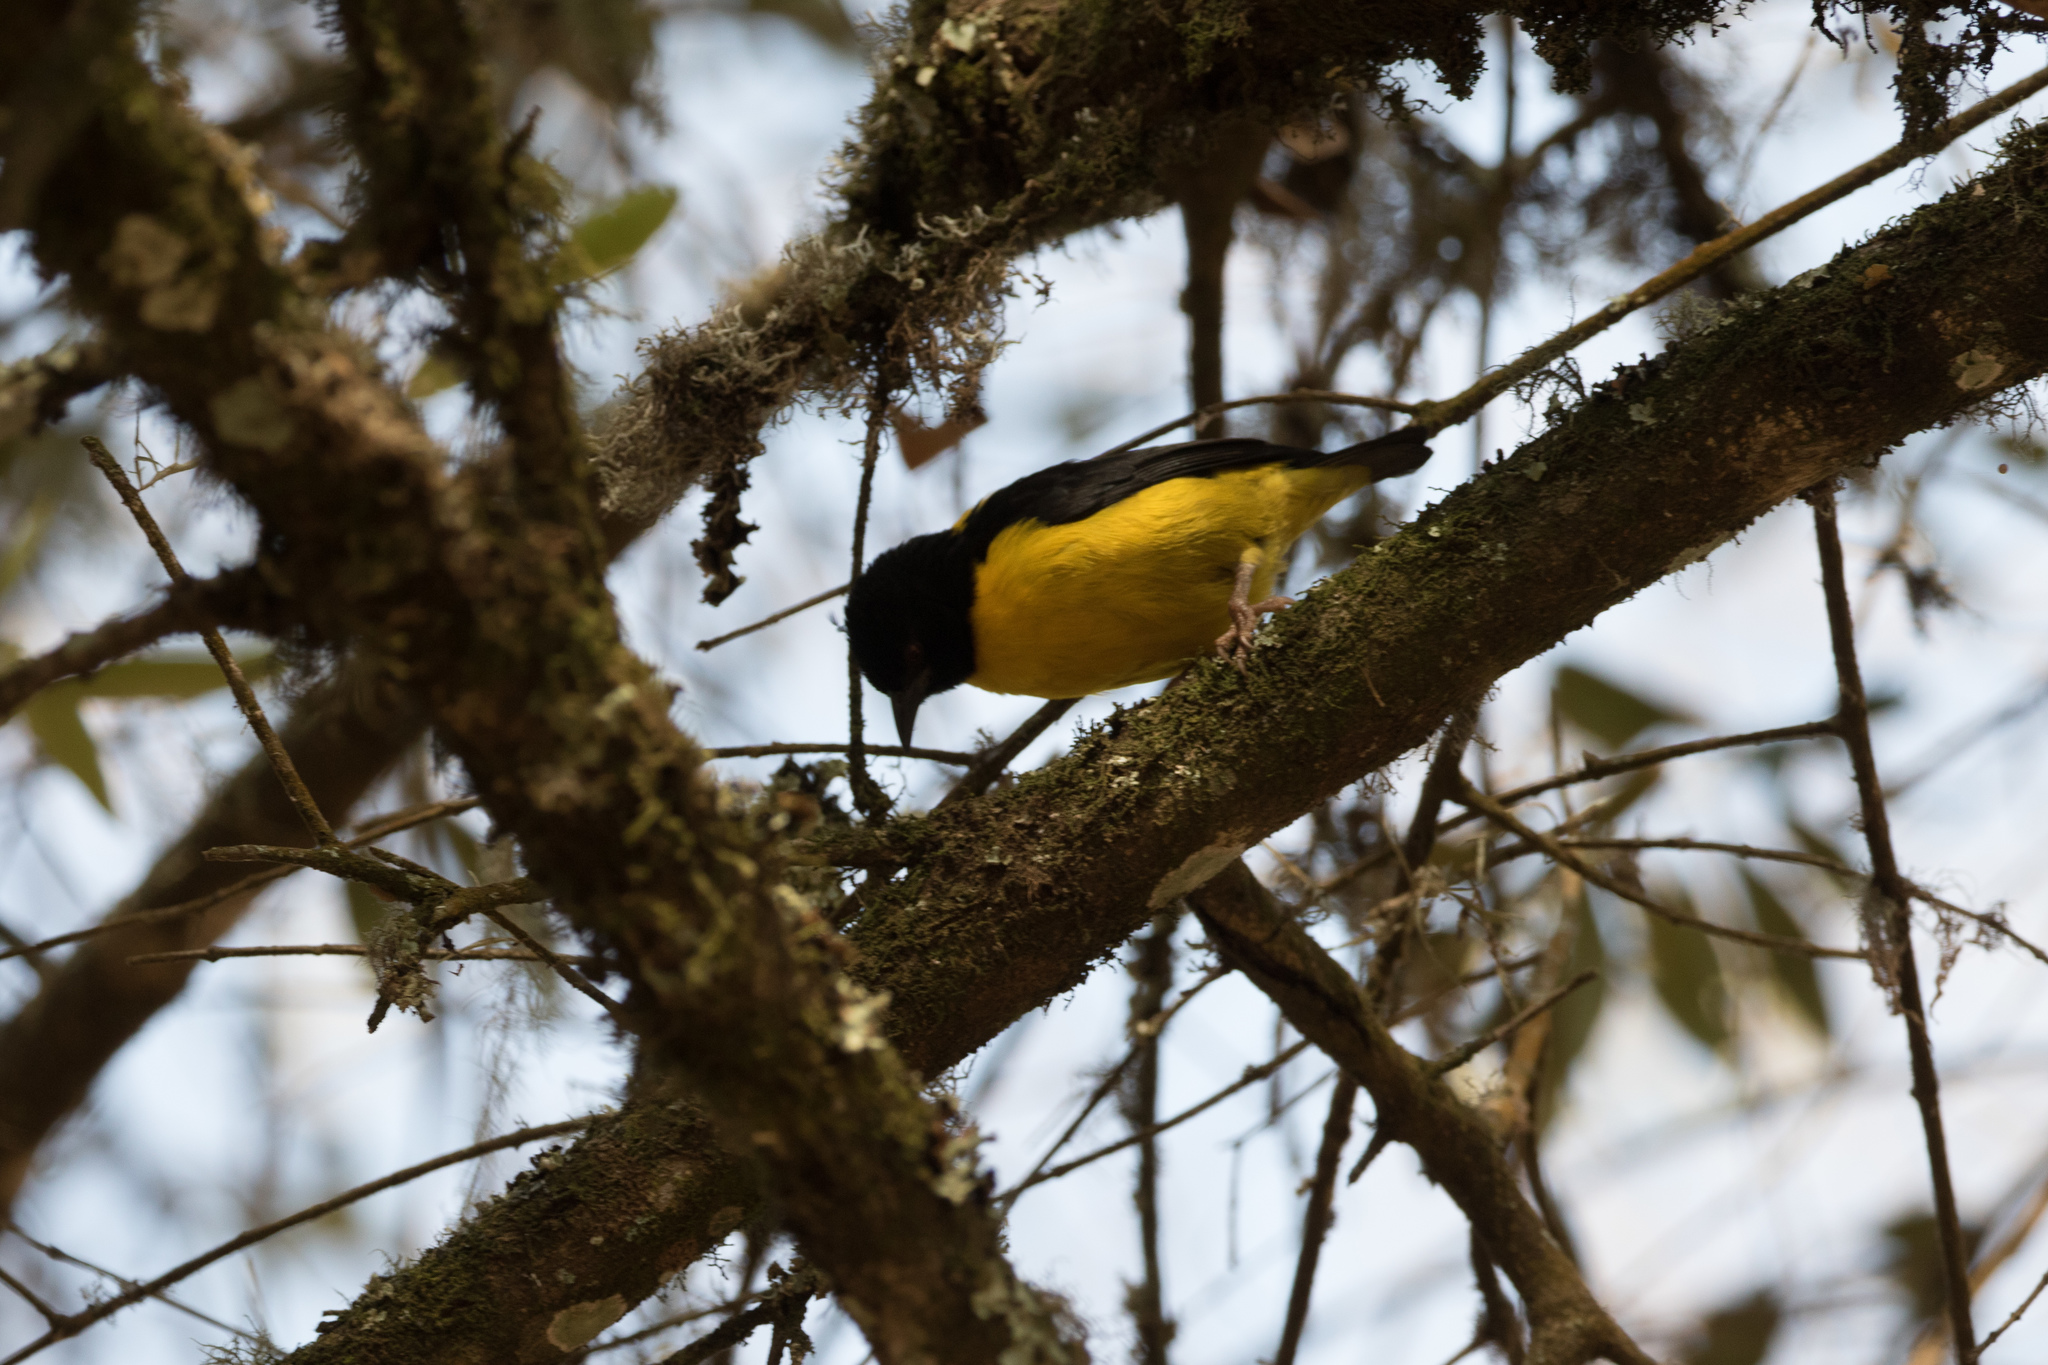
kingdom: Animalia
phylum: Chordata
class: Aves
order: Passeriformes
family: Ploceidae
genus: Ploceus
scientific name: Ploceus insignis
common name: Brown-capped weaver
